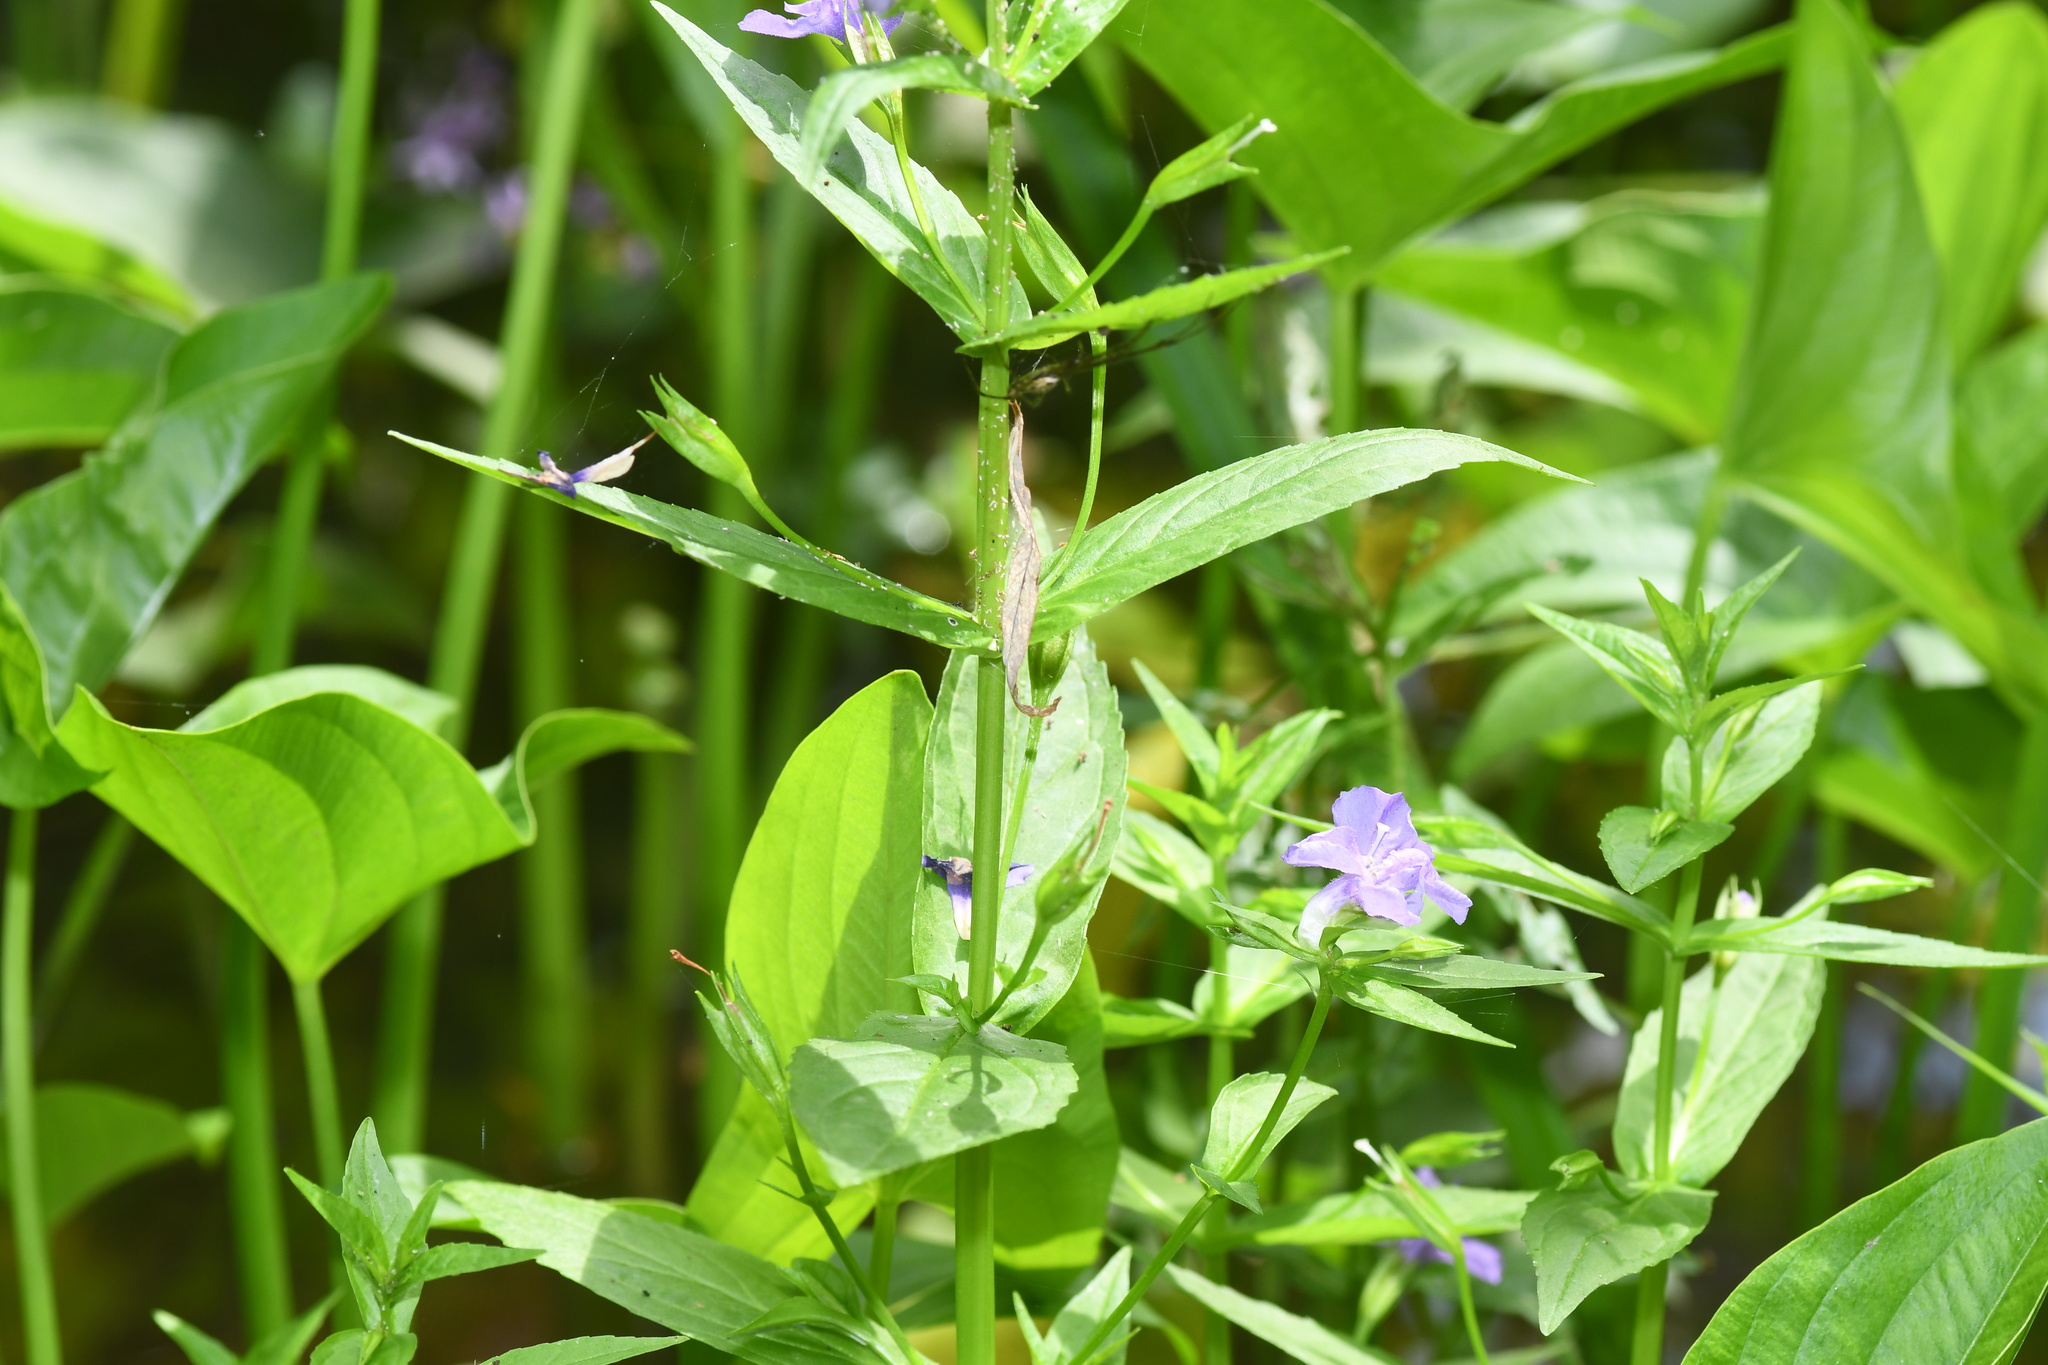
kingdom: Plantae
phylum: Tracheophyta
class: Magnoliopsida
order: Lamiales
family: Phrymaceae
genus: Mimulus
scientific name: Mimulus ringens
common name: Allegheny monkeyflower
